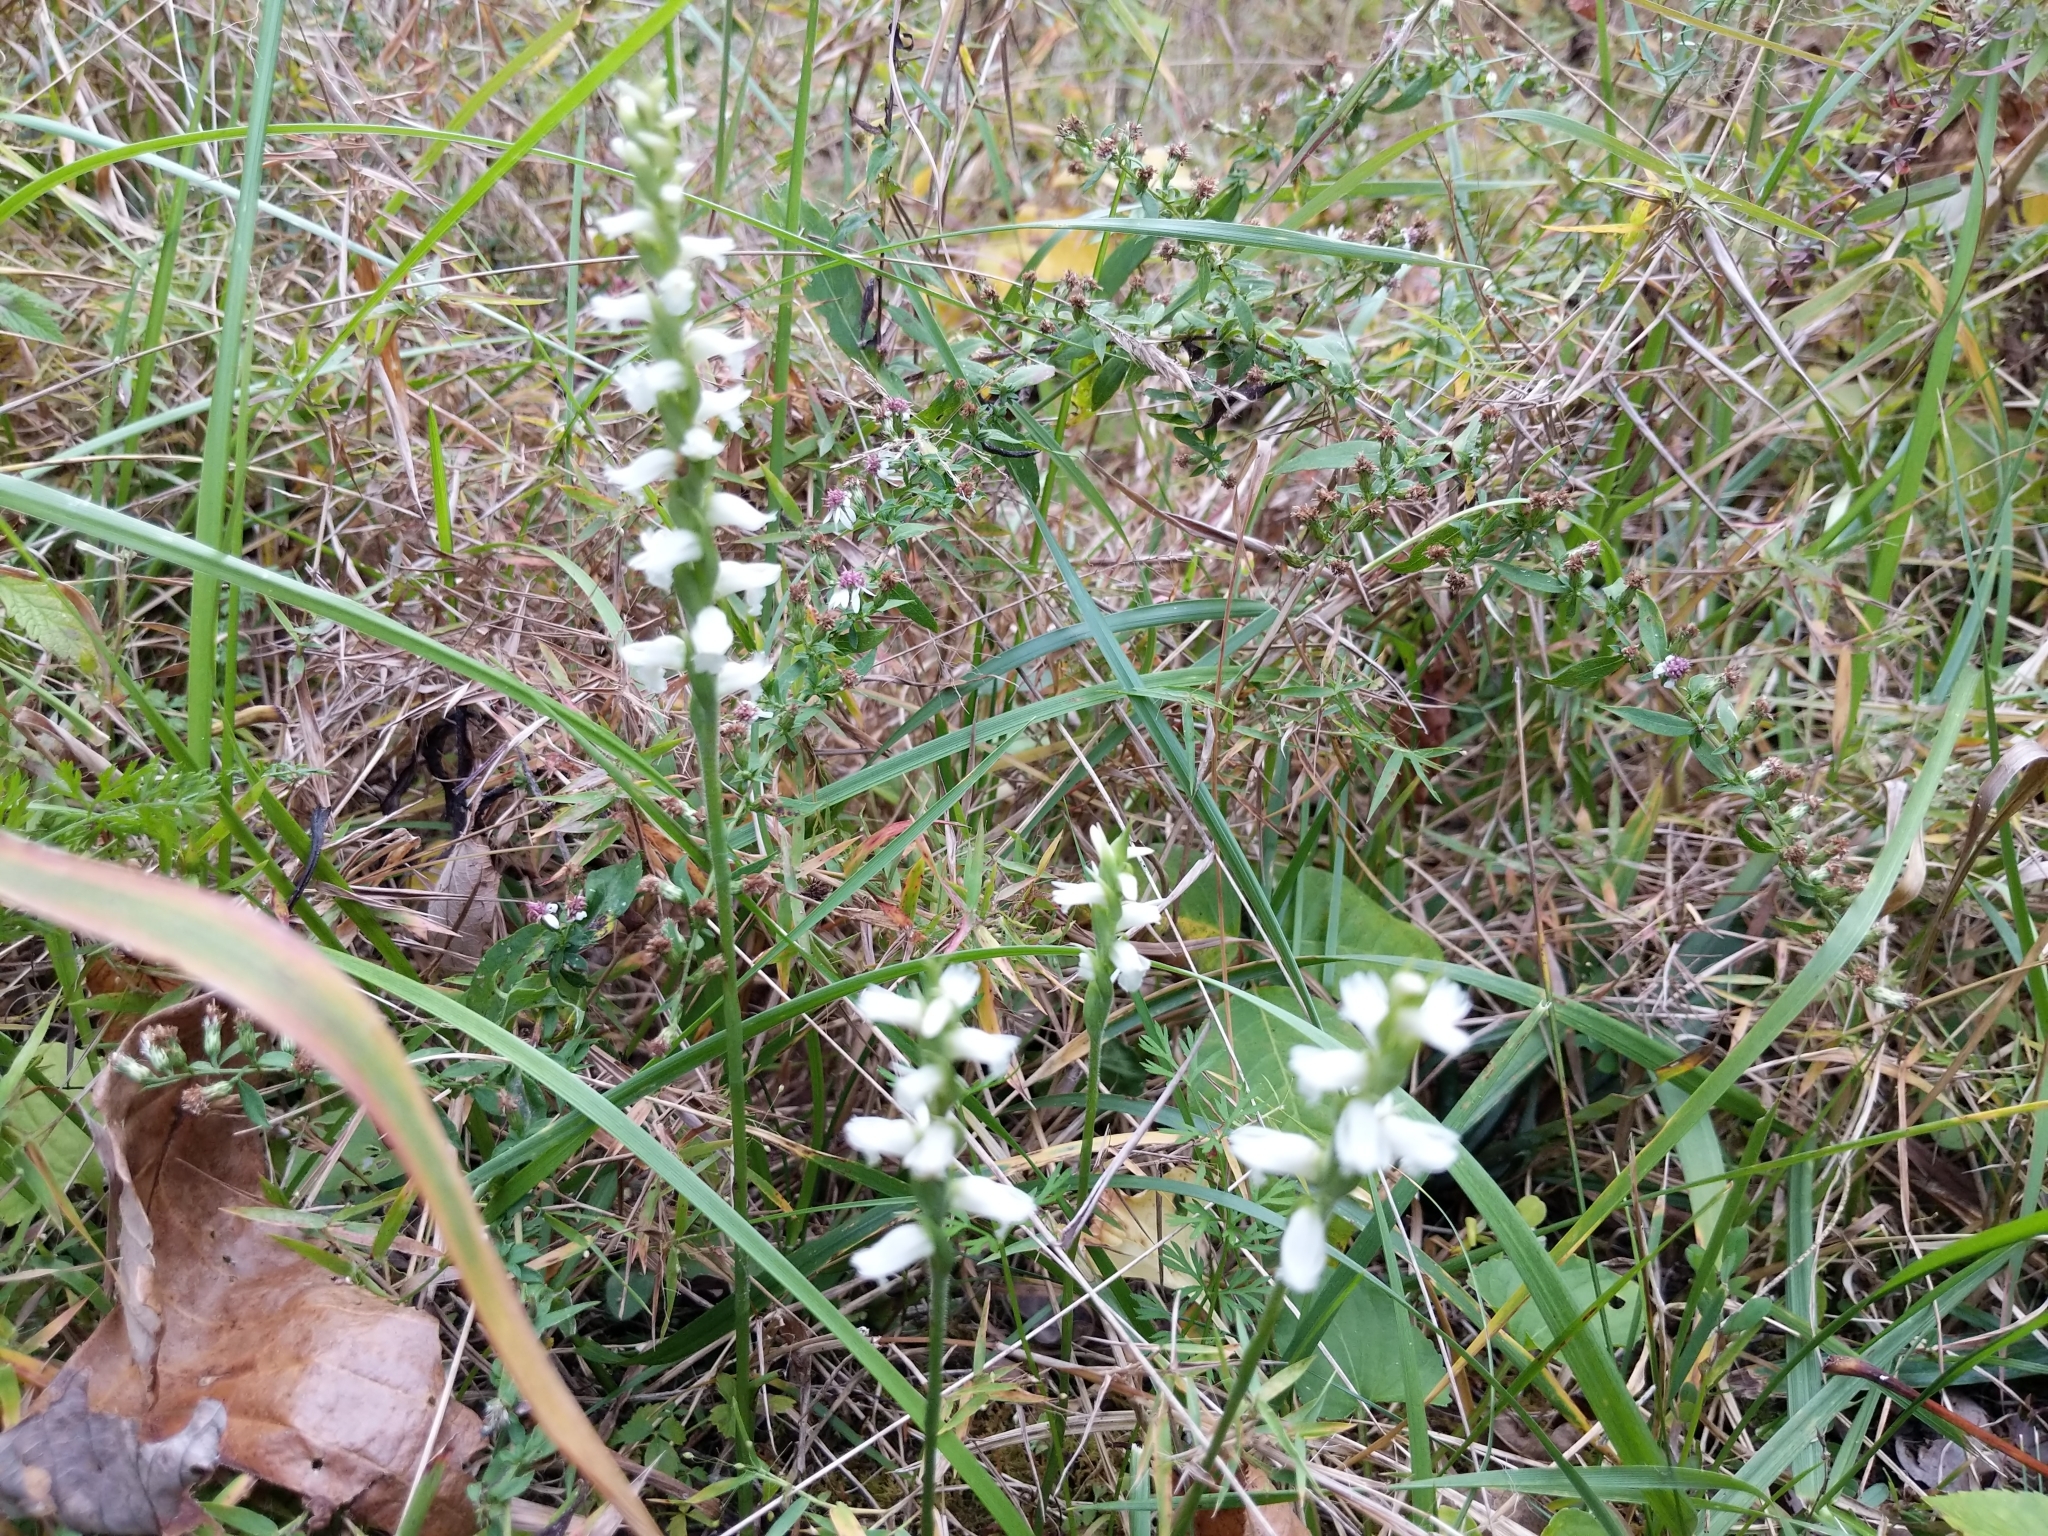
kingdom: Plantae
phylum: Tracheophyta
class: Liliopsida
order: Asparagales
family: Orchidaceae
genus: Spiranthes
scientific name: Spiranthes cernua
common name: Dropping ladies'-tresses
